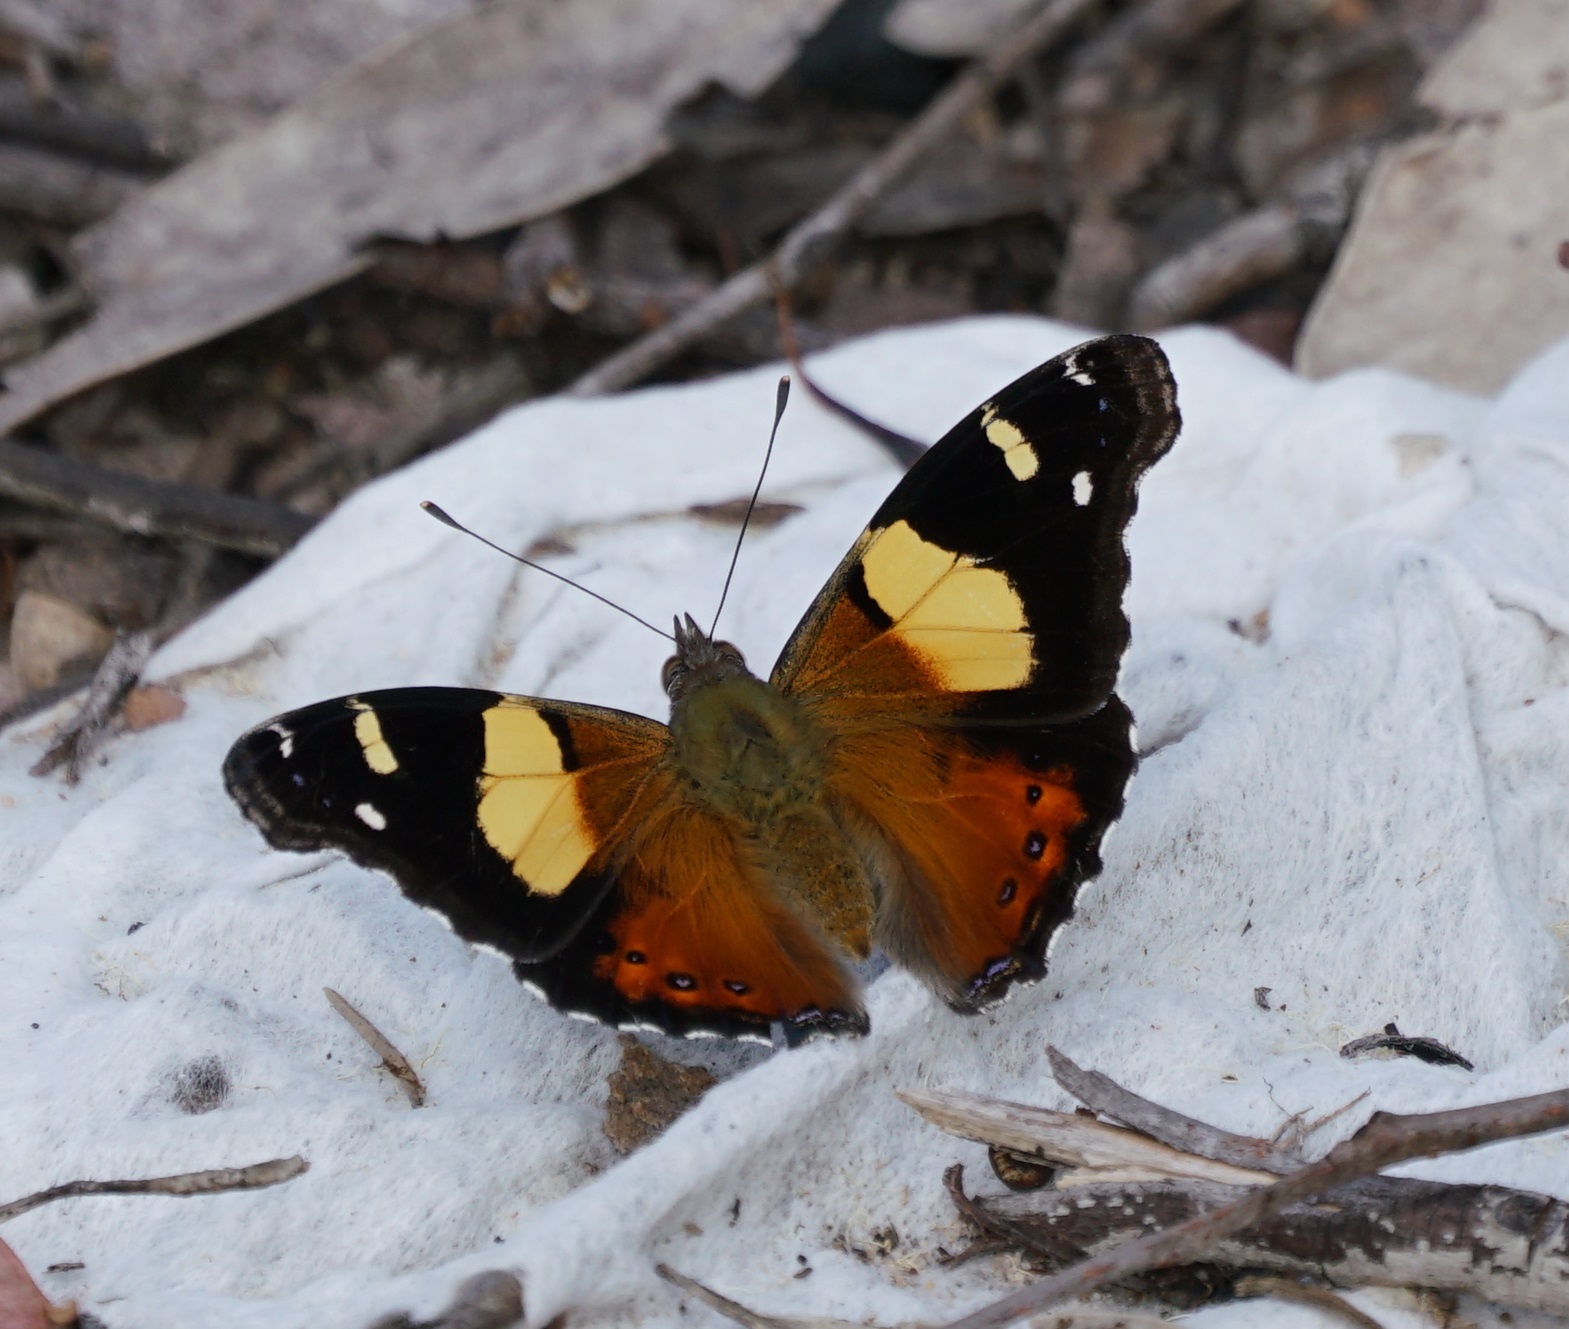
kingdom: Animalia
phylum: Arthropoda
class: Insecta
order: Lepidoptera
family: Nymphalidae
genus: Vanessa
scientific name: Vanessa itea
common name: Yellow admiral
